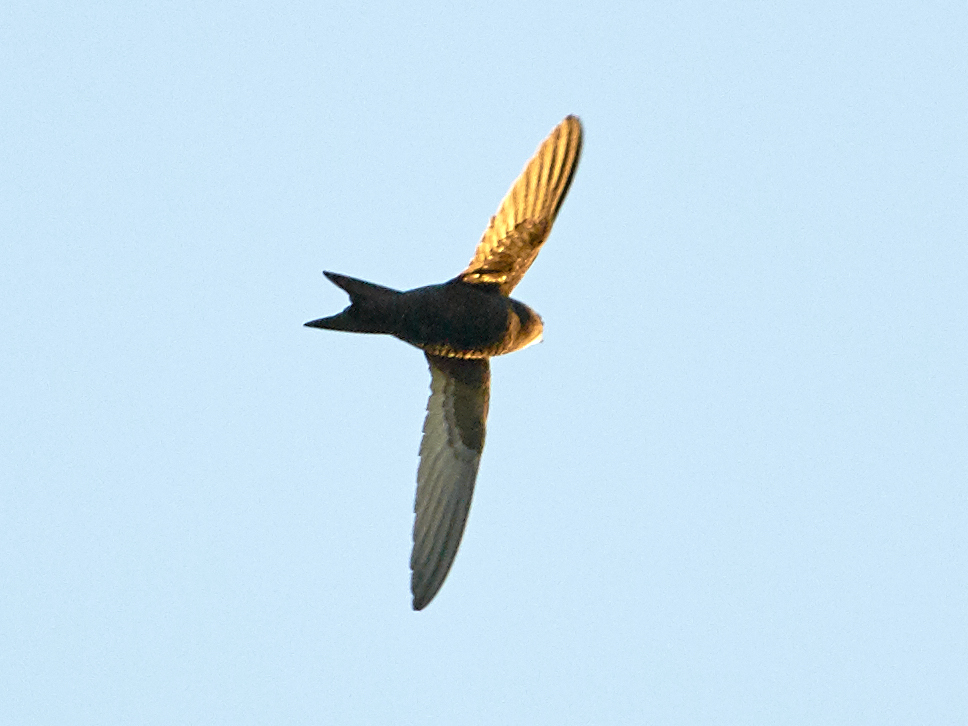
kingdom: Animalia
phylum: Chordata
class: Aves
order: Apodiformes
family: Apodidae
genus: Apus
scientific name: Apus apus
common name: Common swift
